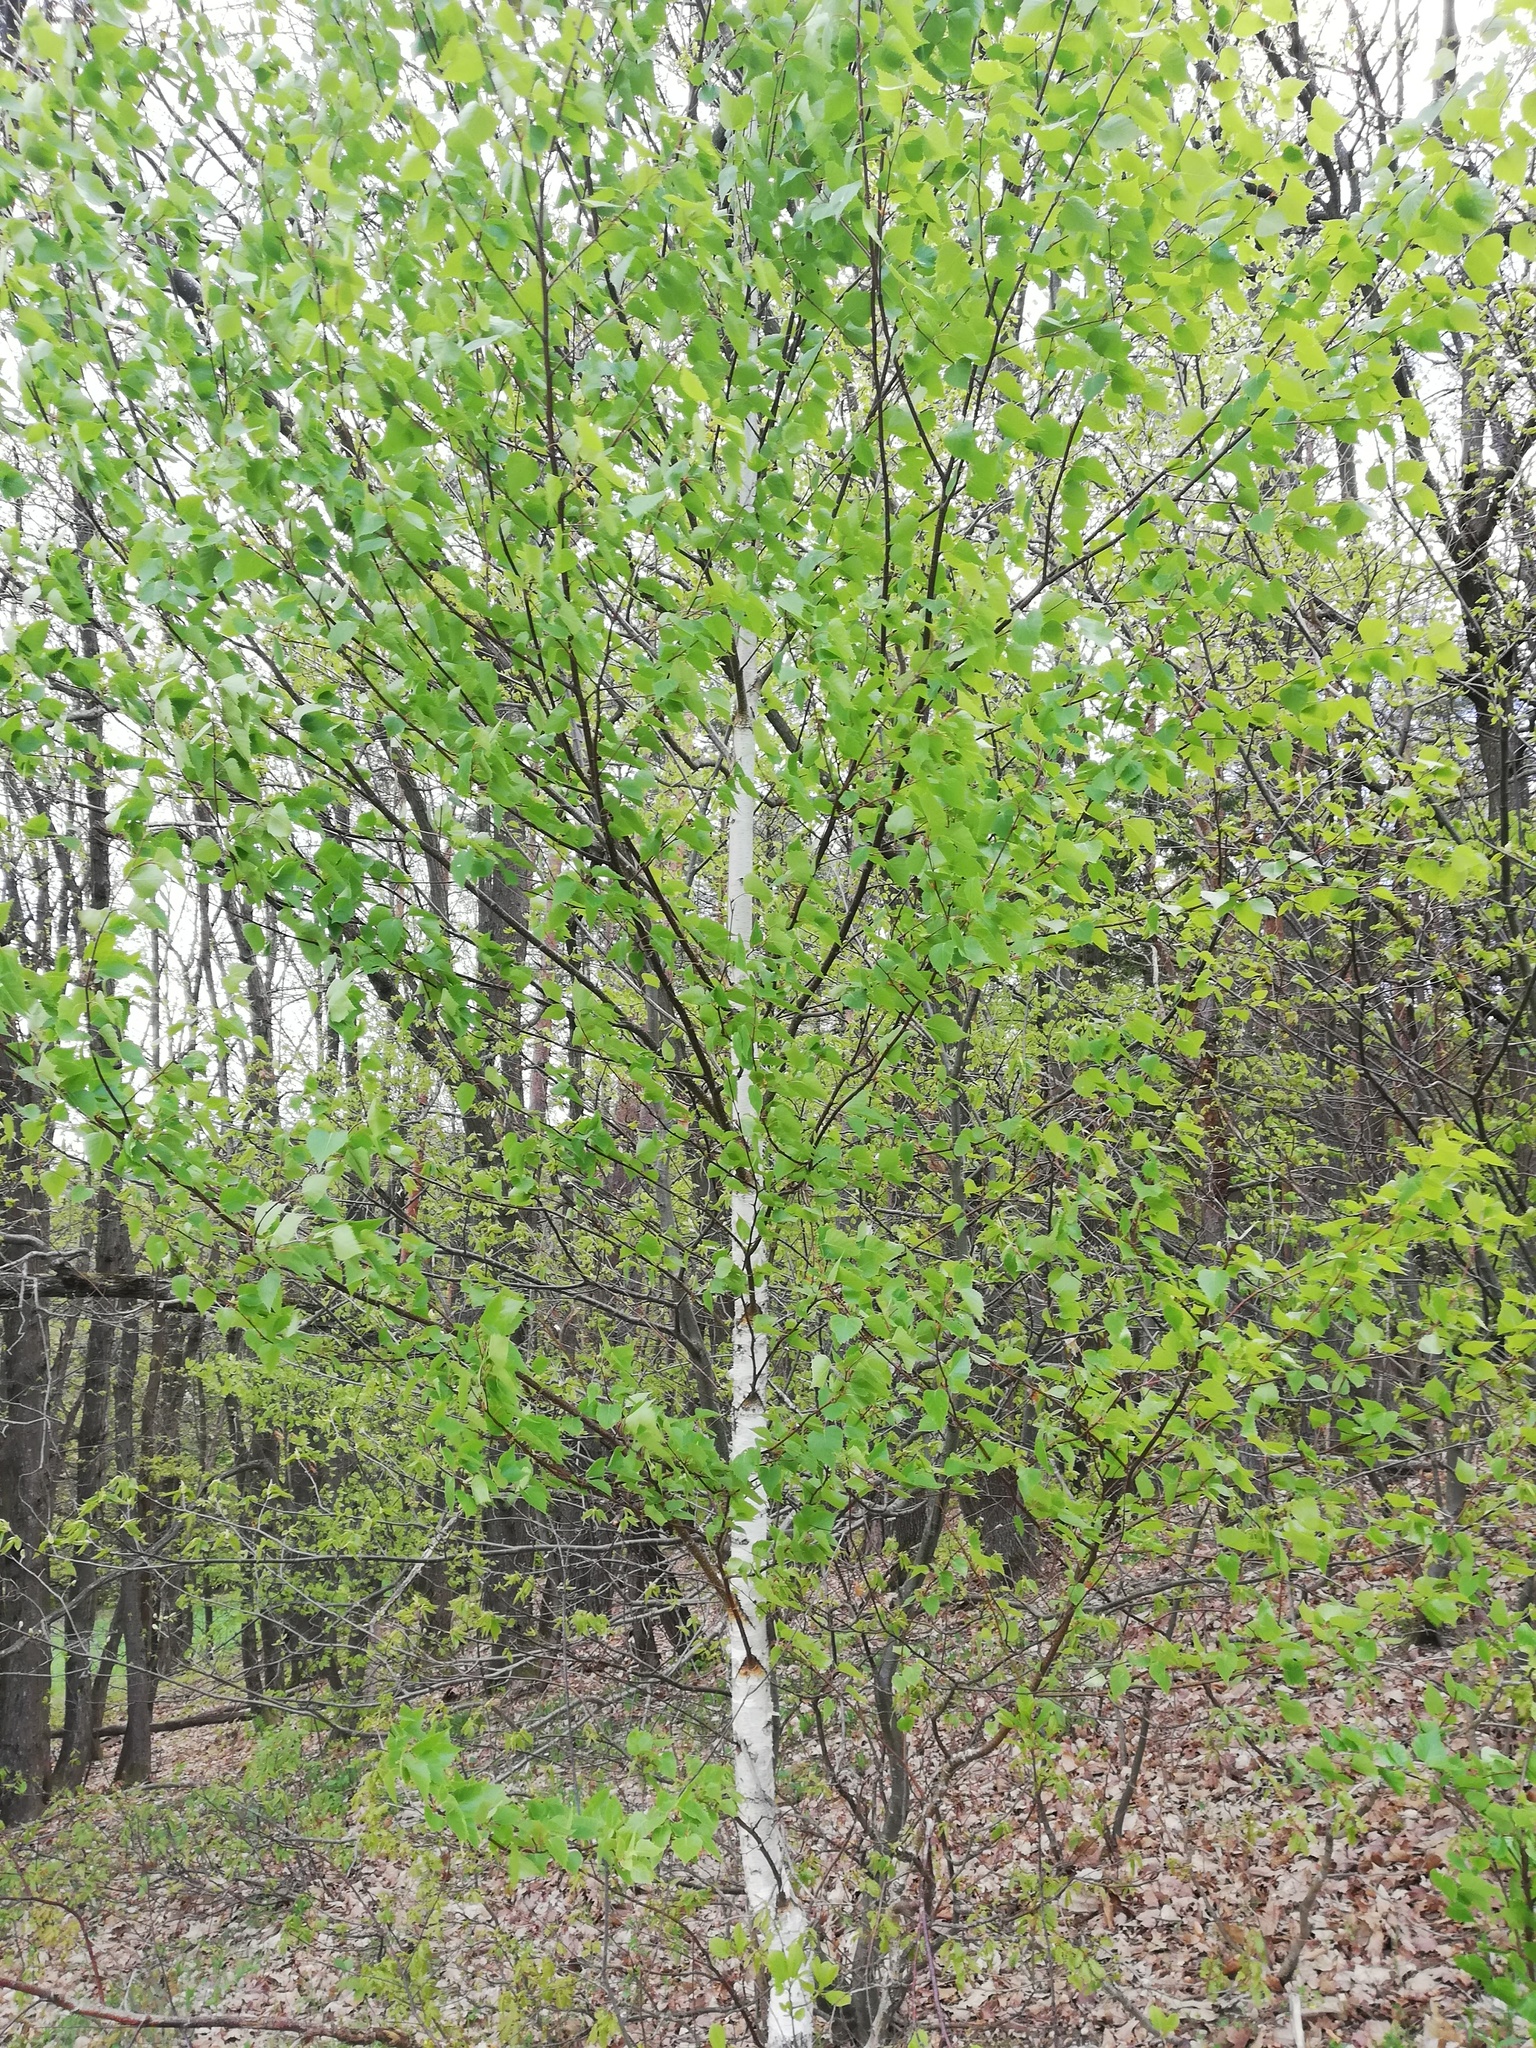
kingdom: Plantae
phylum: Tracheophyta
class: Magnoliopsida
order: Fagales
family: Betulaceae
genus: Betula
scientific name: Betula pendula
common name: Silver birch
